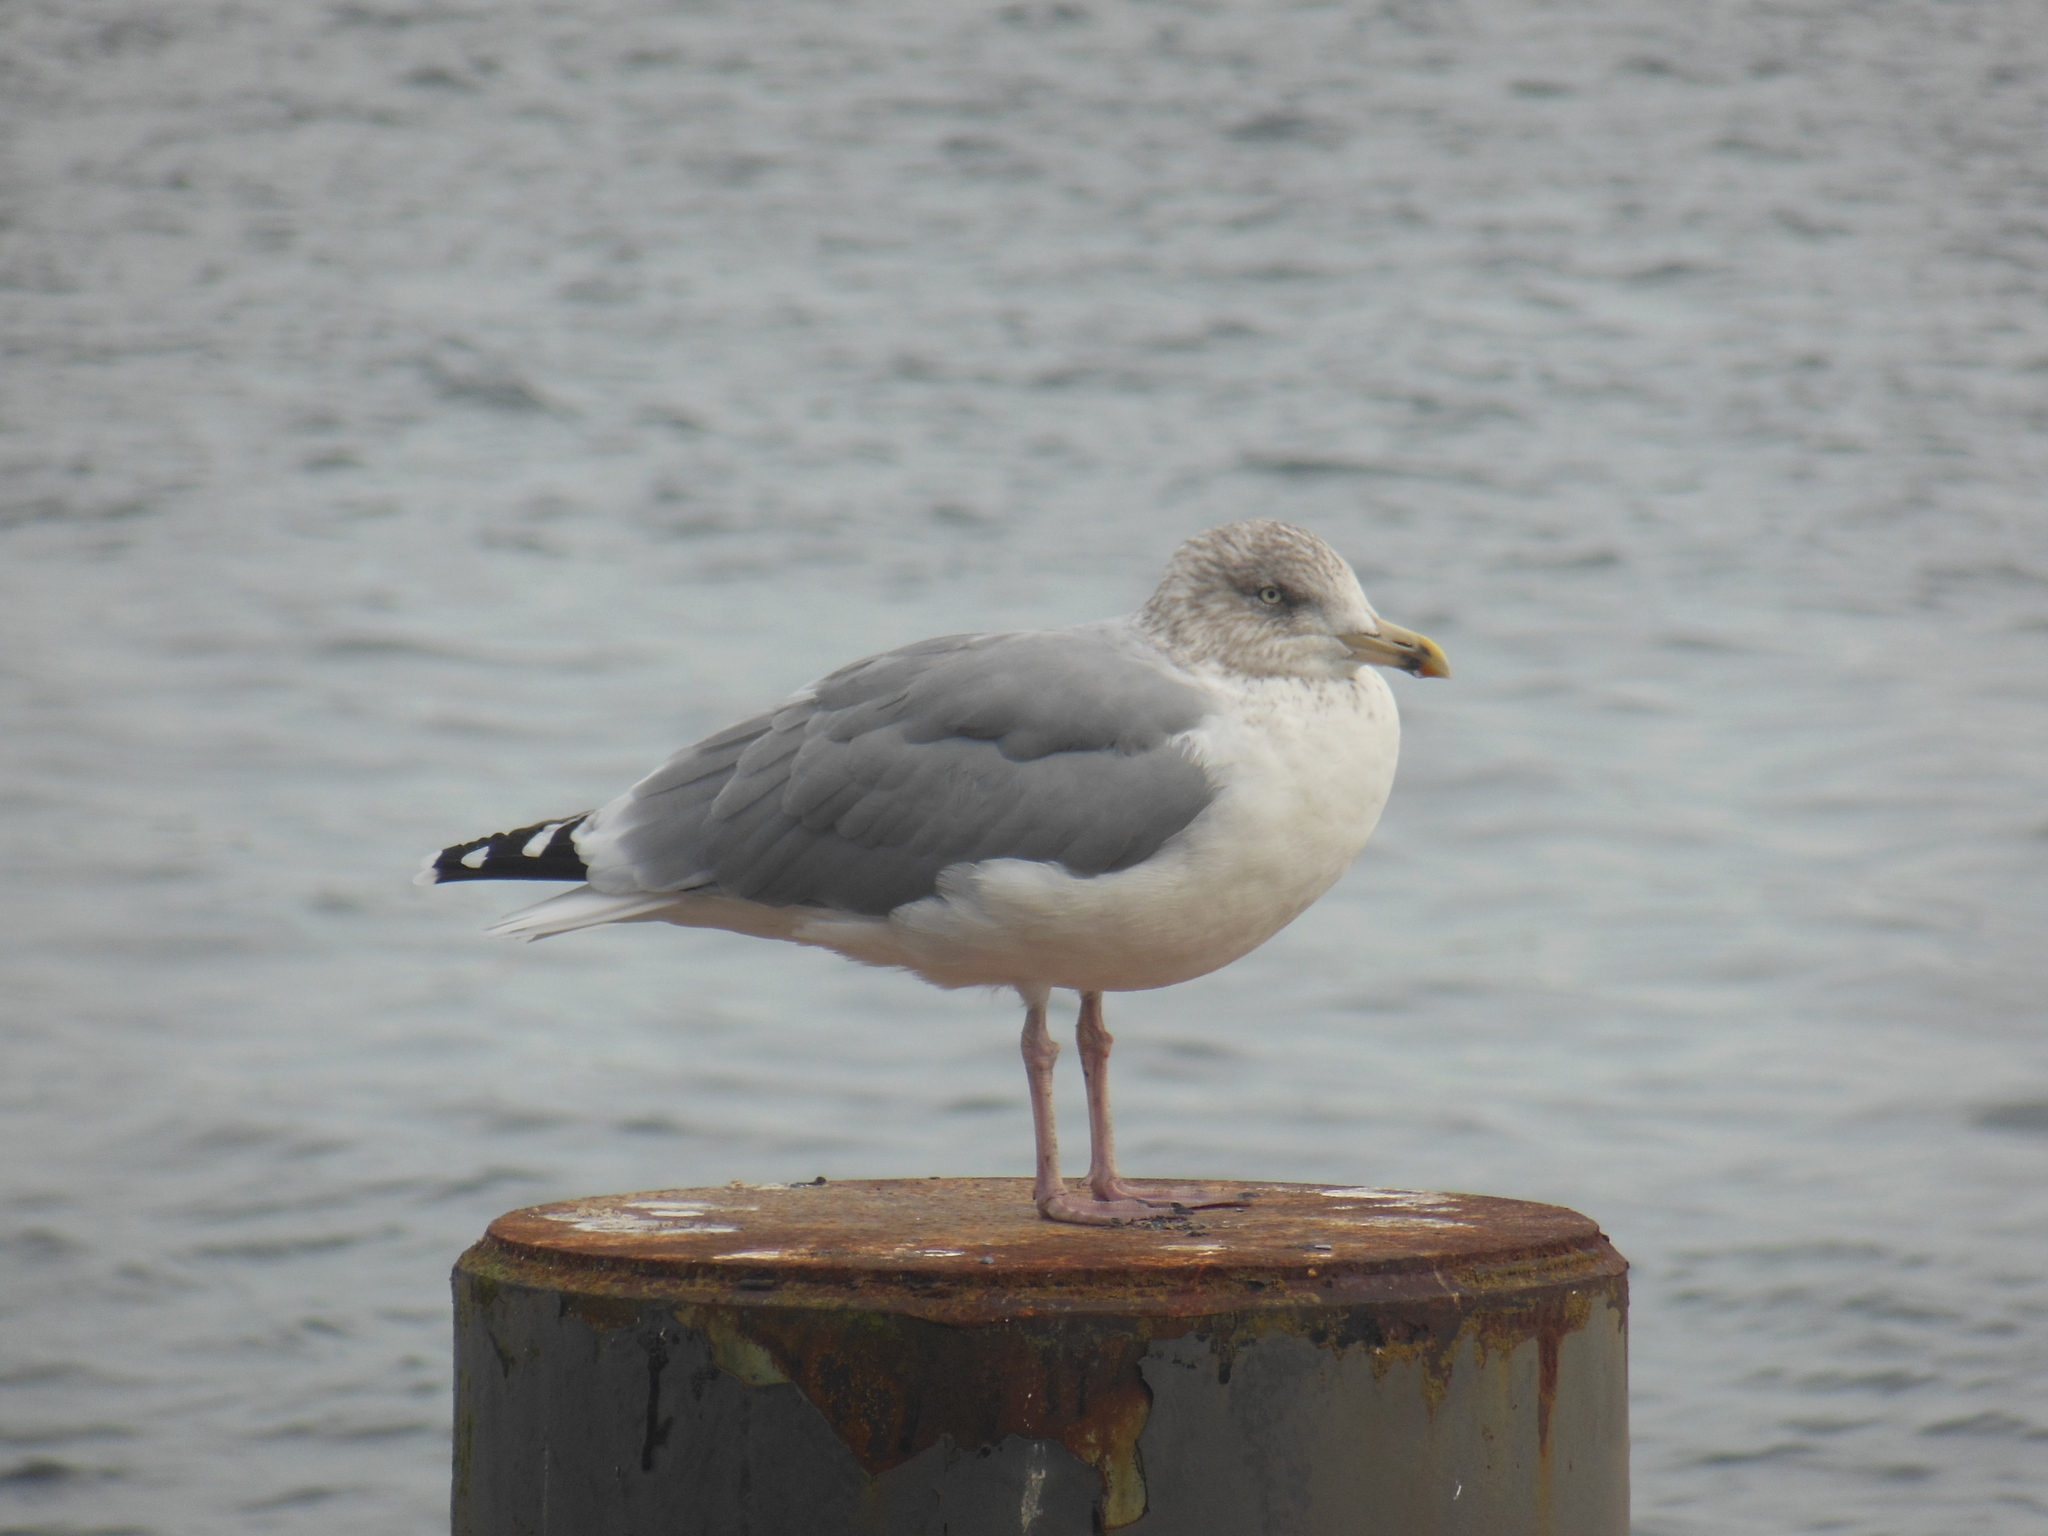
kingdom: Animalia
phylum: Chordata
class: Aves
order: Charadriiformes
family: Laridae
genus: Larus
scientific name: Larus argentatus
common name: Herring gull
